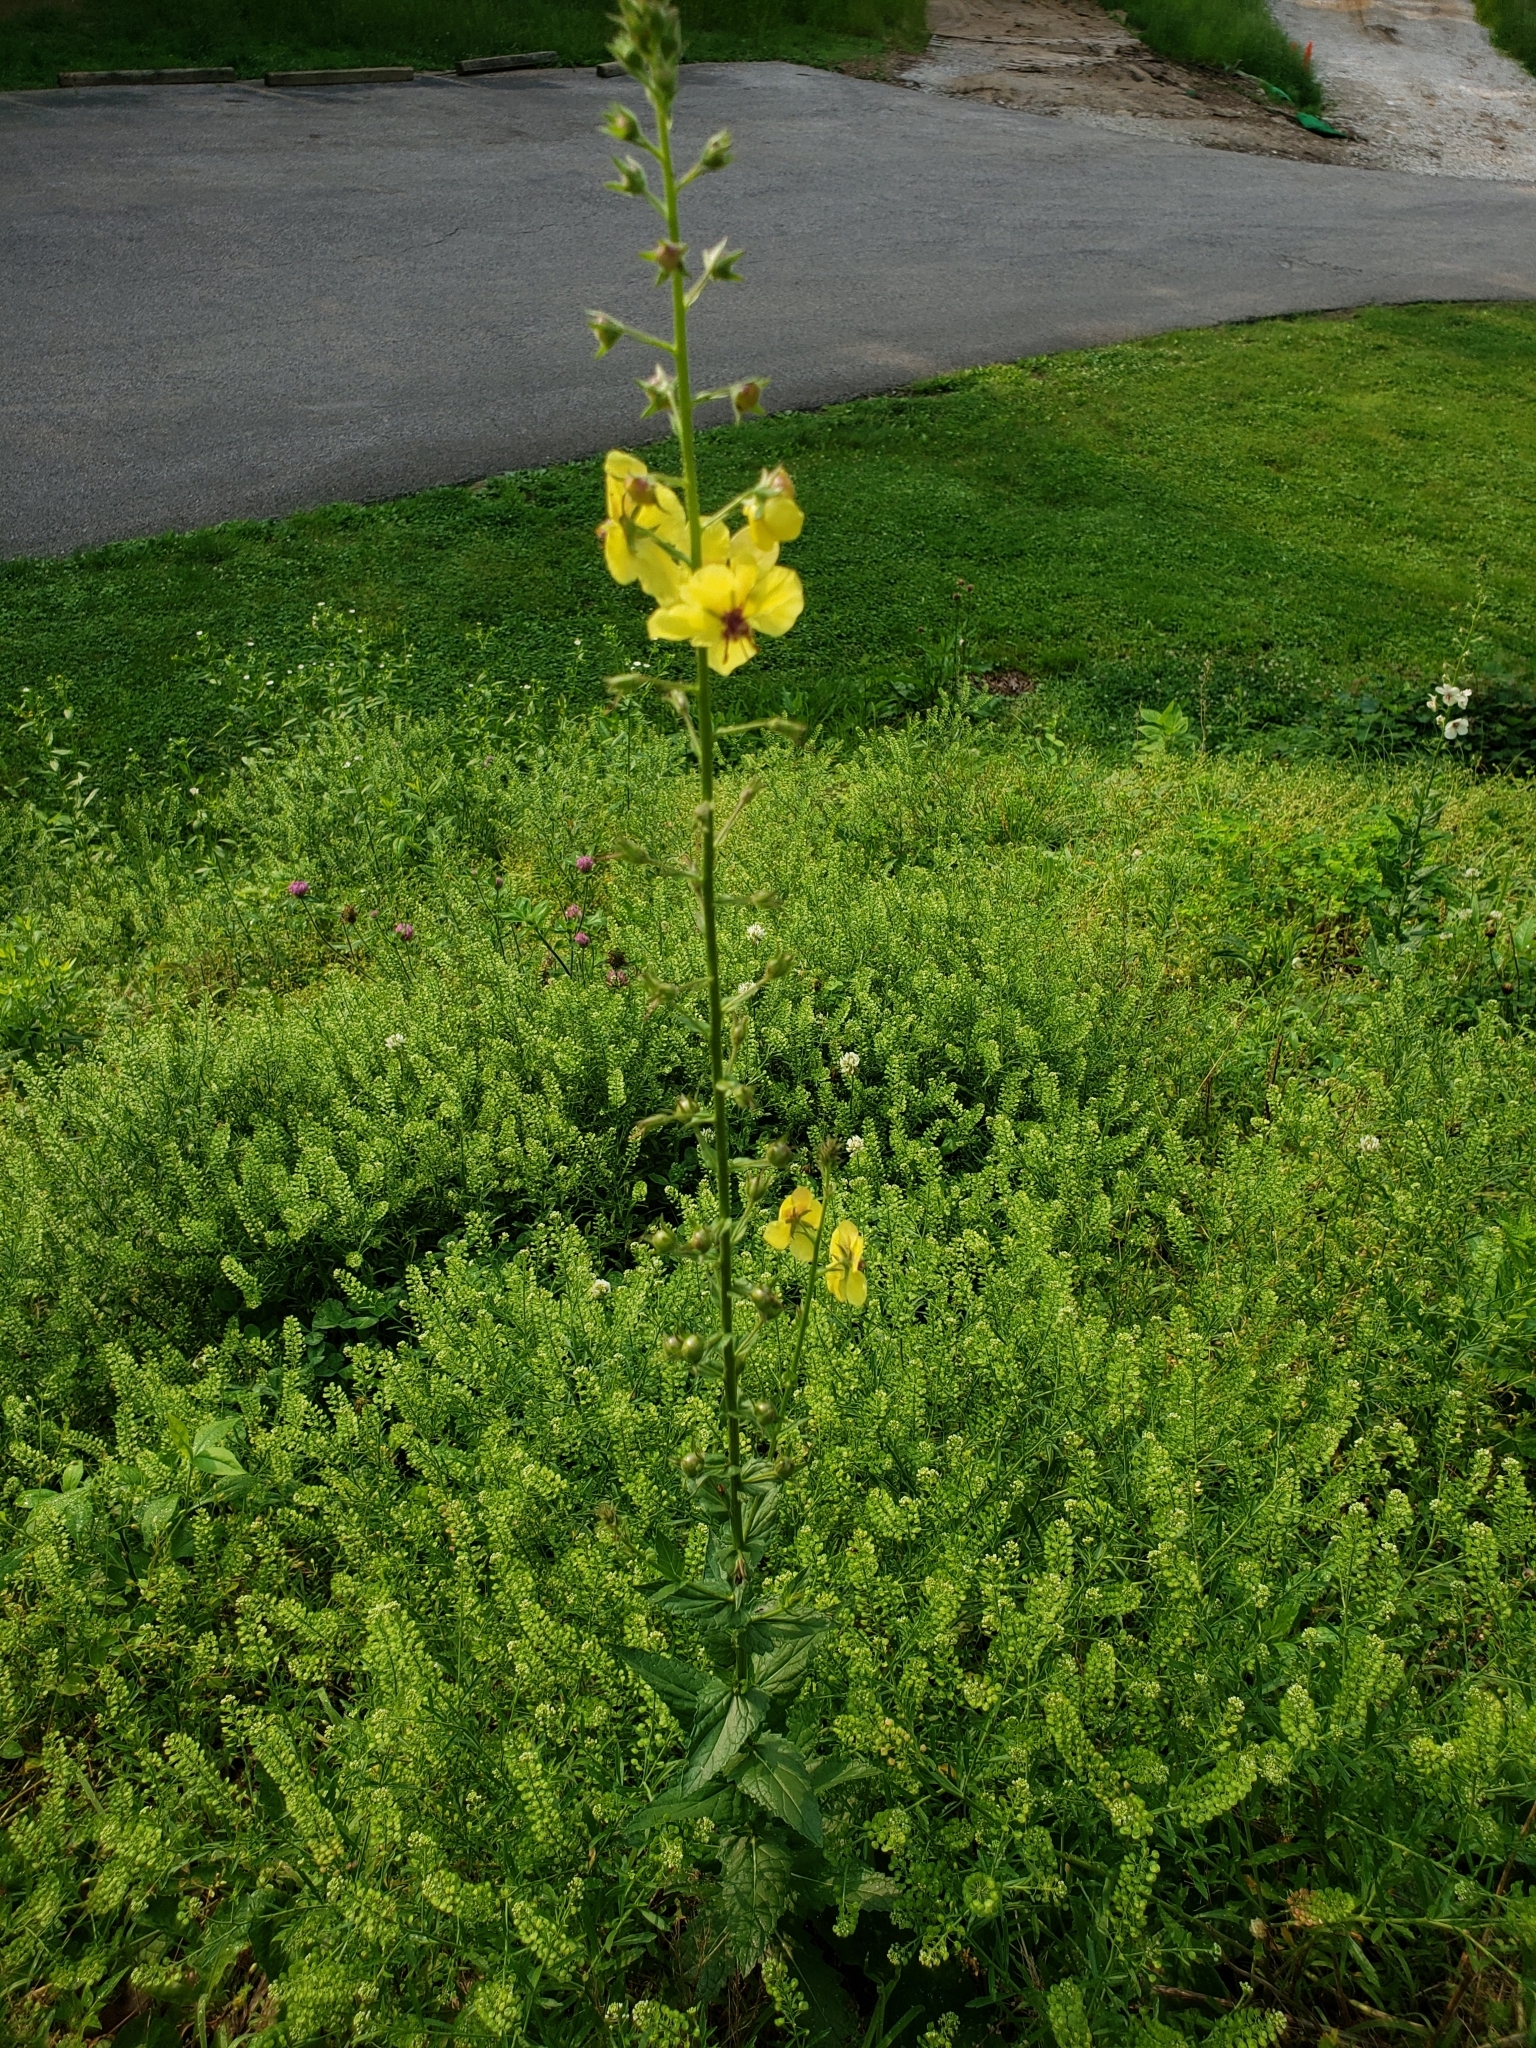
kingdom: Plantae
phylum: Tracheophyta
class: Magnoliopsida
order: Lamiales
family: Scrophulariaceae
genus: Verbascum
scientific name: Verbascum blattaria
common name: Moth mullein
